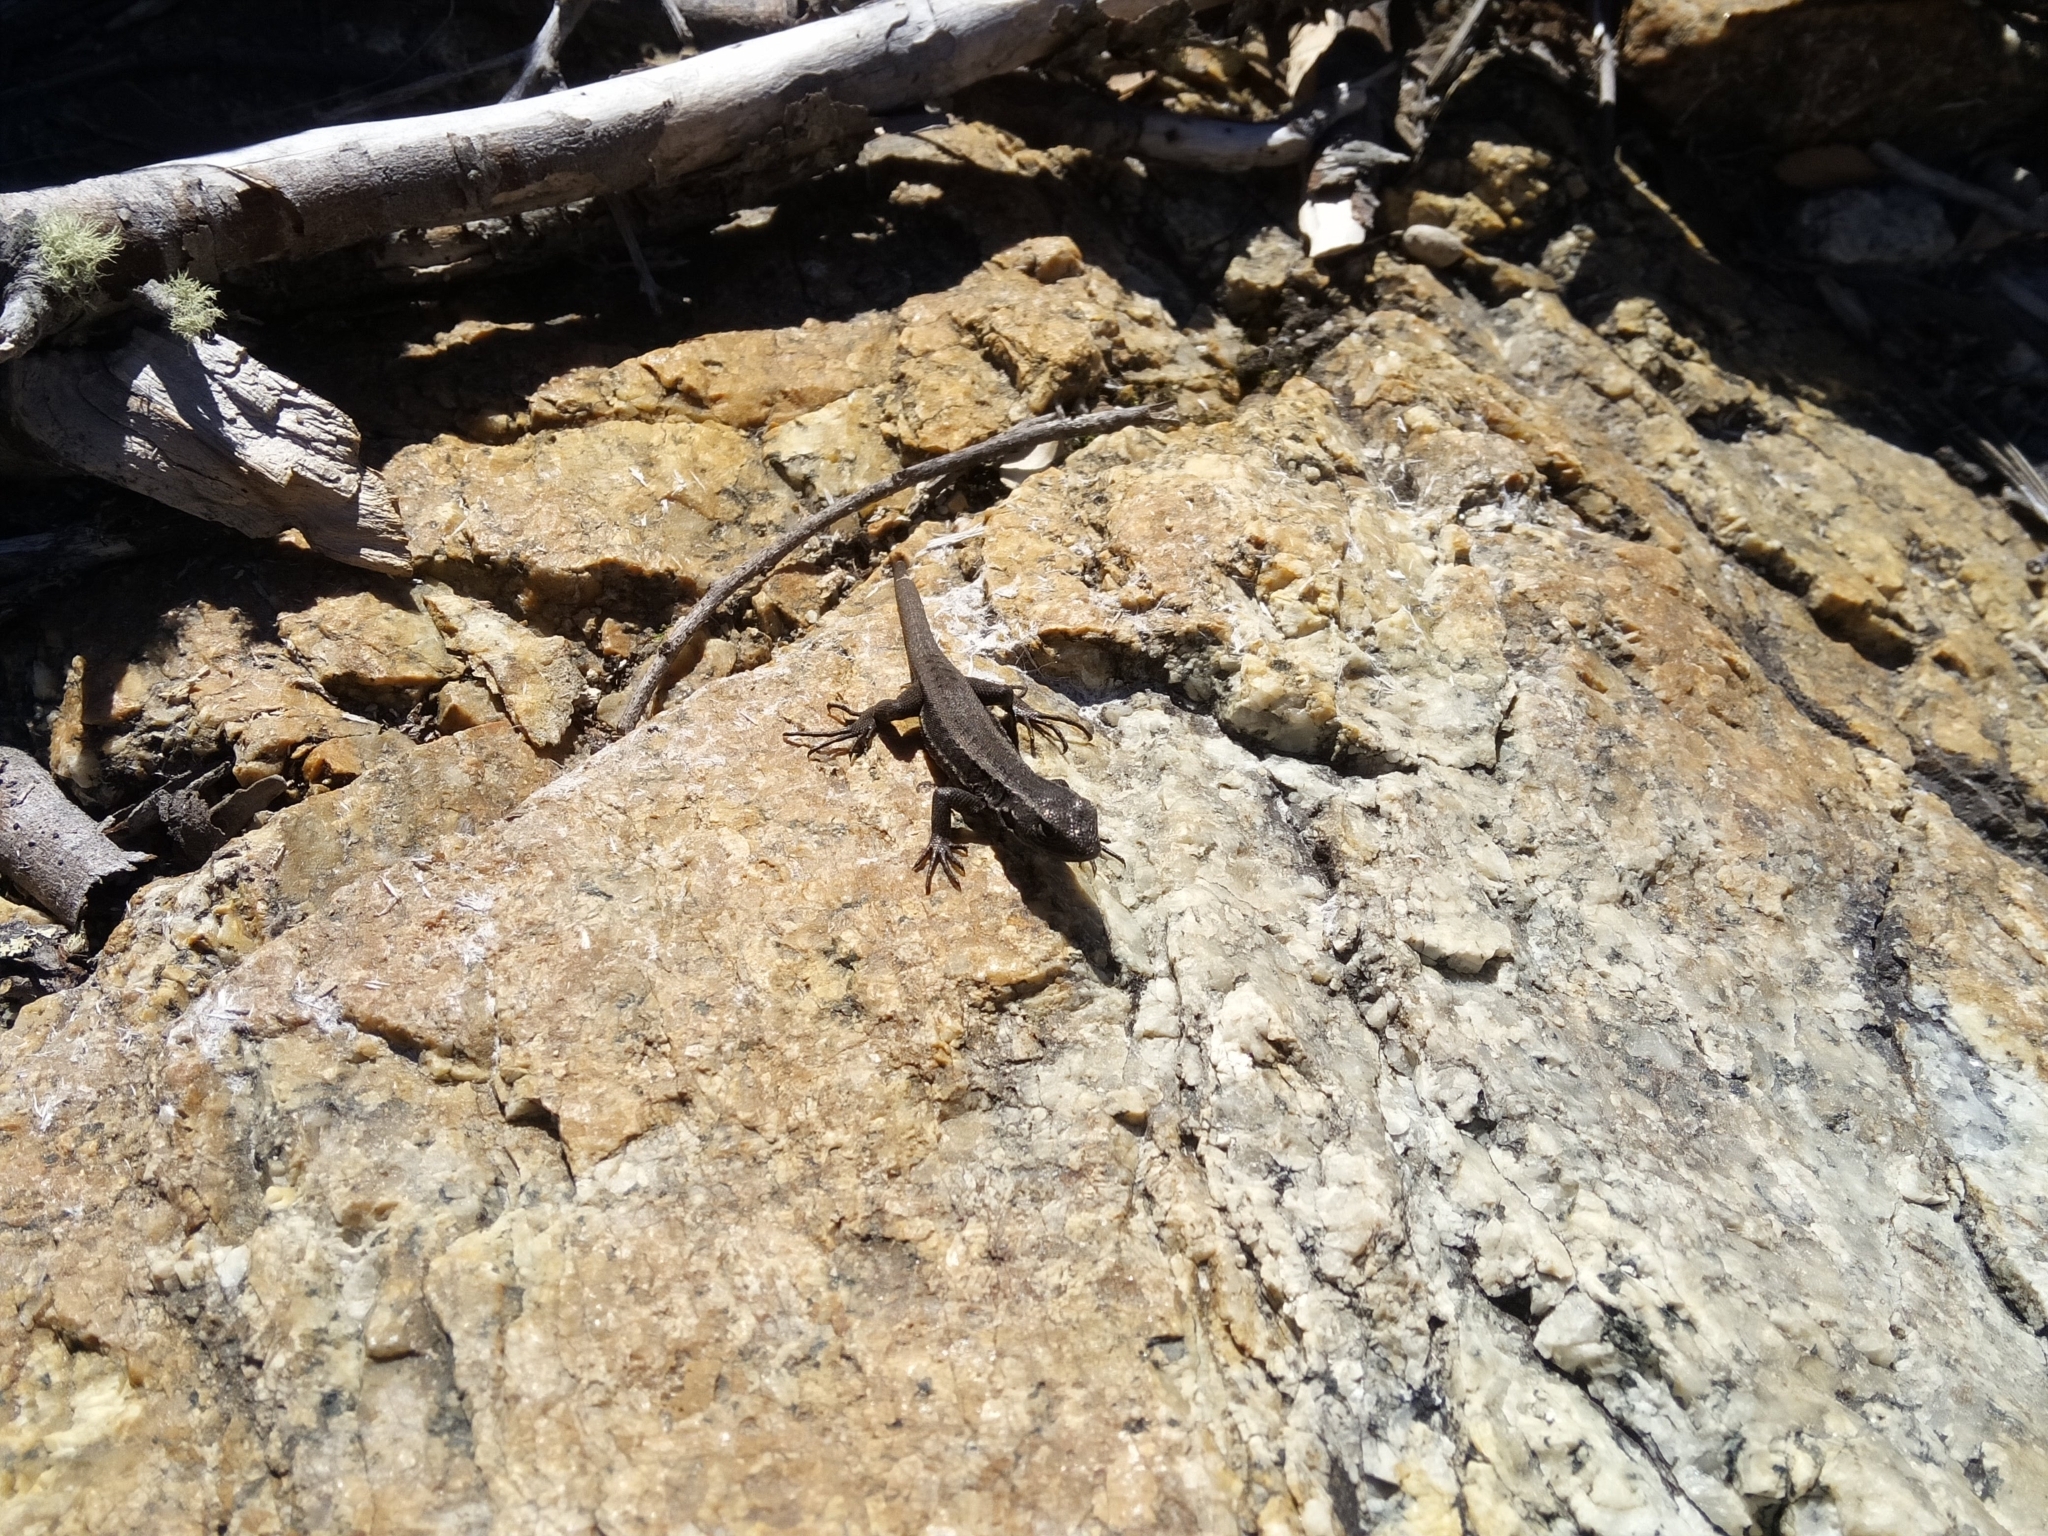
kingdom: Animalia
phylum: Chordata
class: Squamata
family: Liolaemidae
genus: Liolaemus
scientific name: Liolaemus pictus
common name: Painted tree iguana
